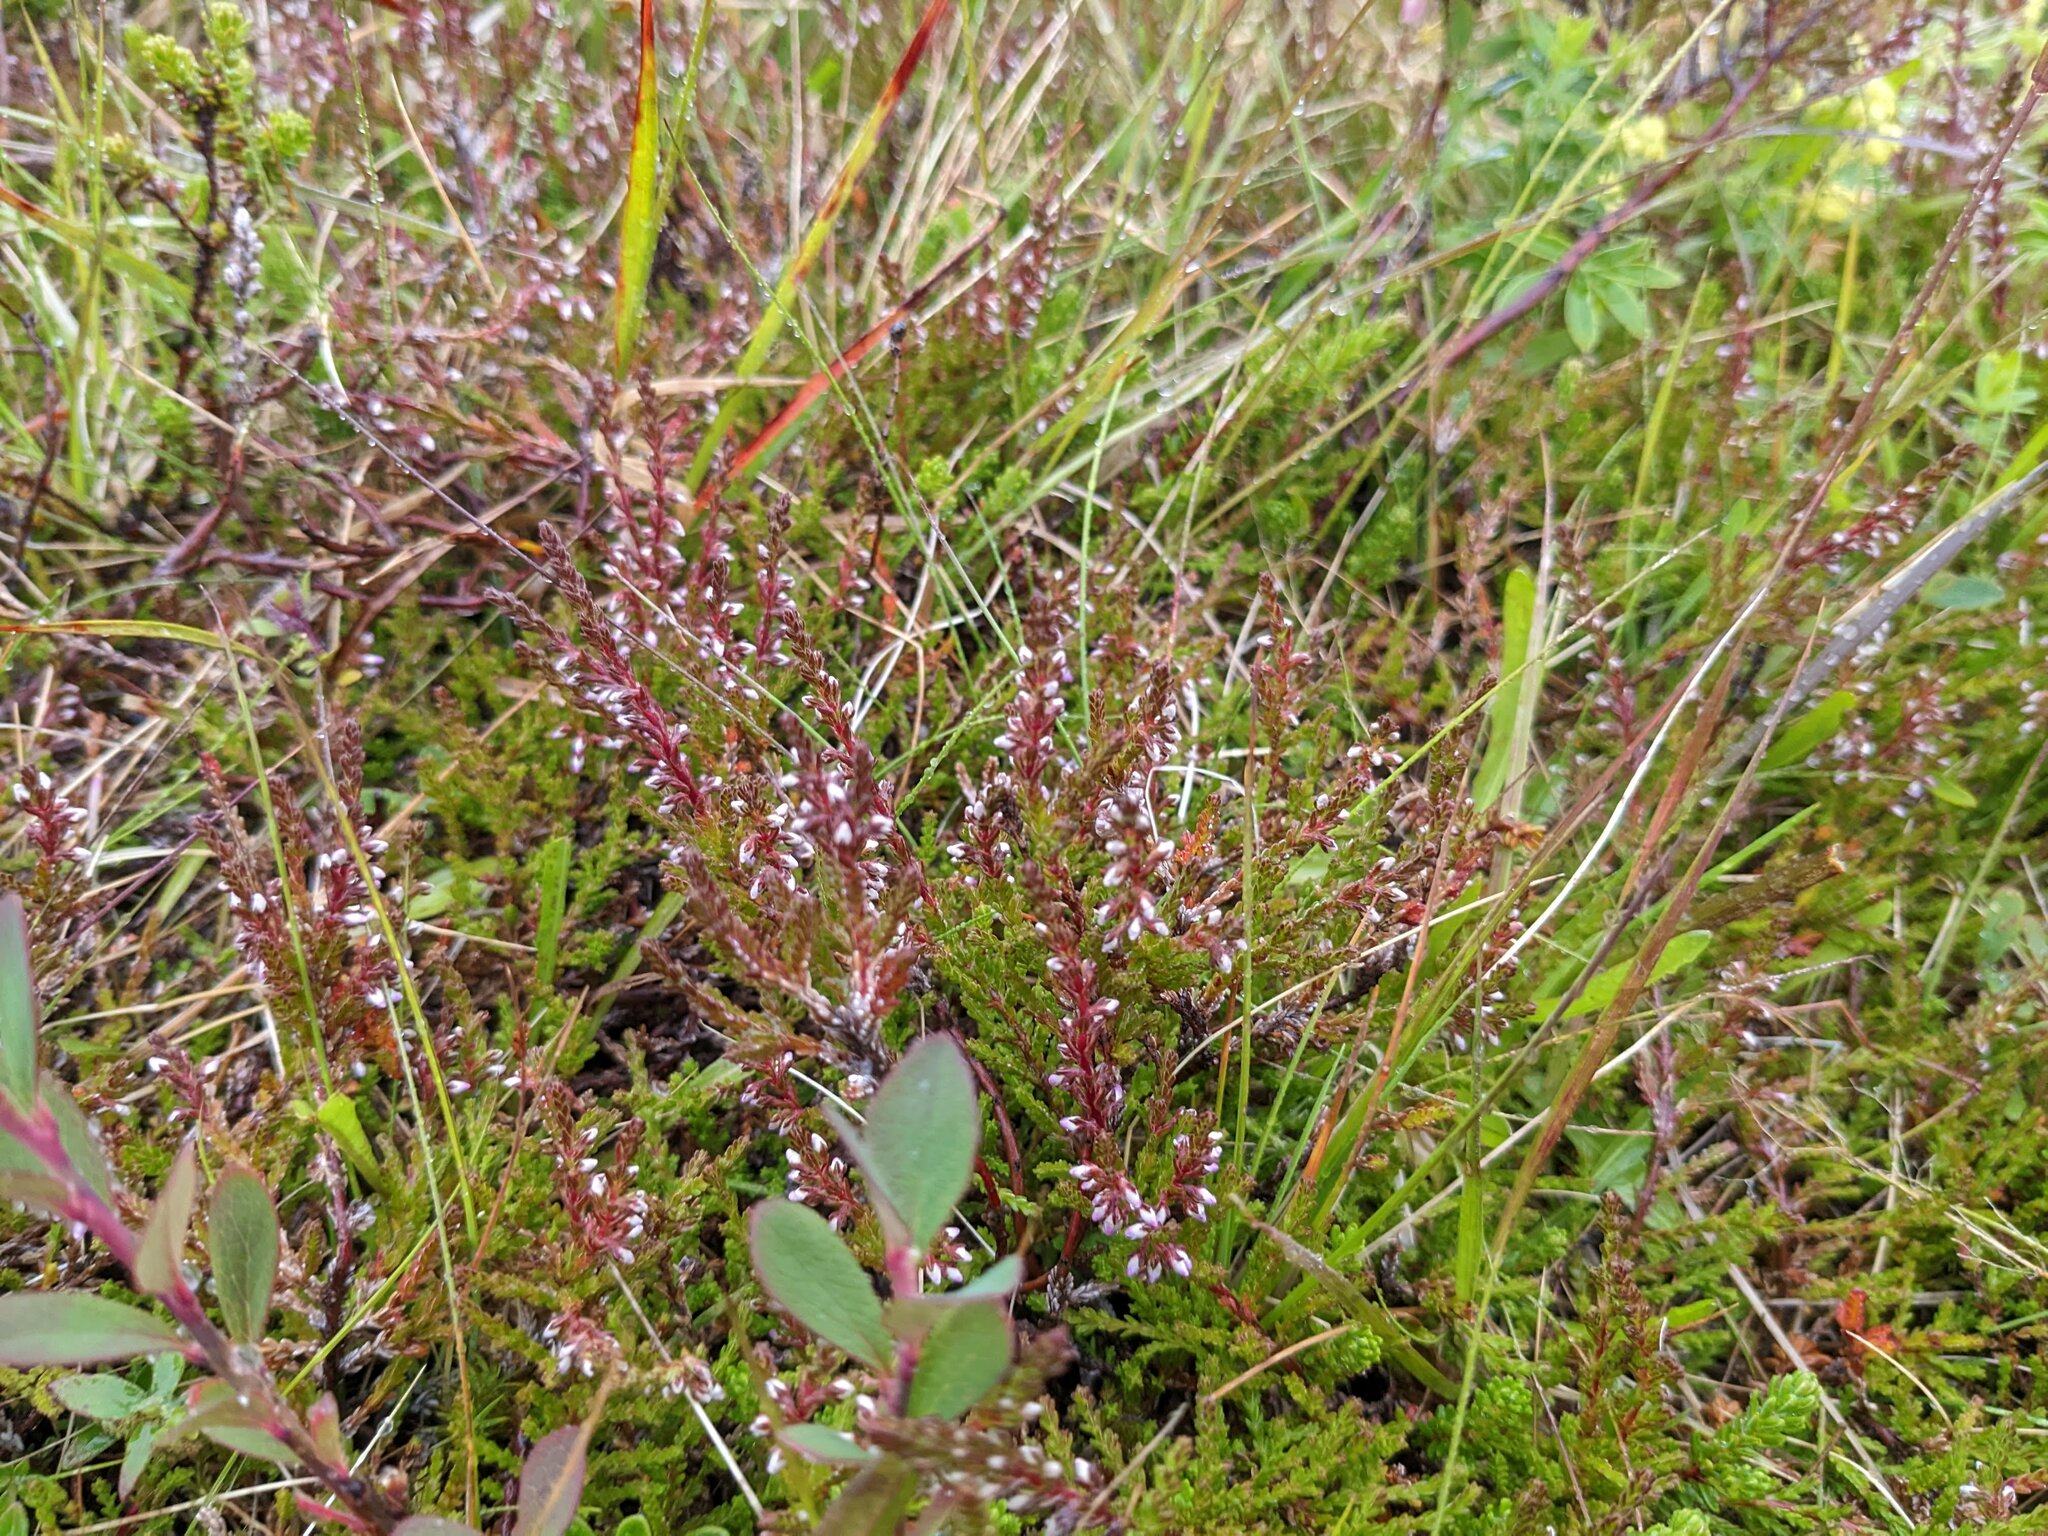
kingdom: Plantae
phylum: Tracheophyta
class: Magnoliopsida
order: Ericales
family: Ericaceae
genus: Calluna
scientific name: Calluna vulgaris
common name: Heather
